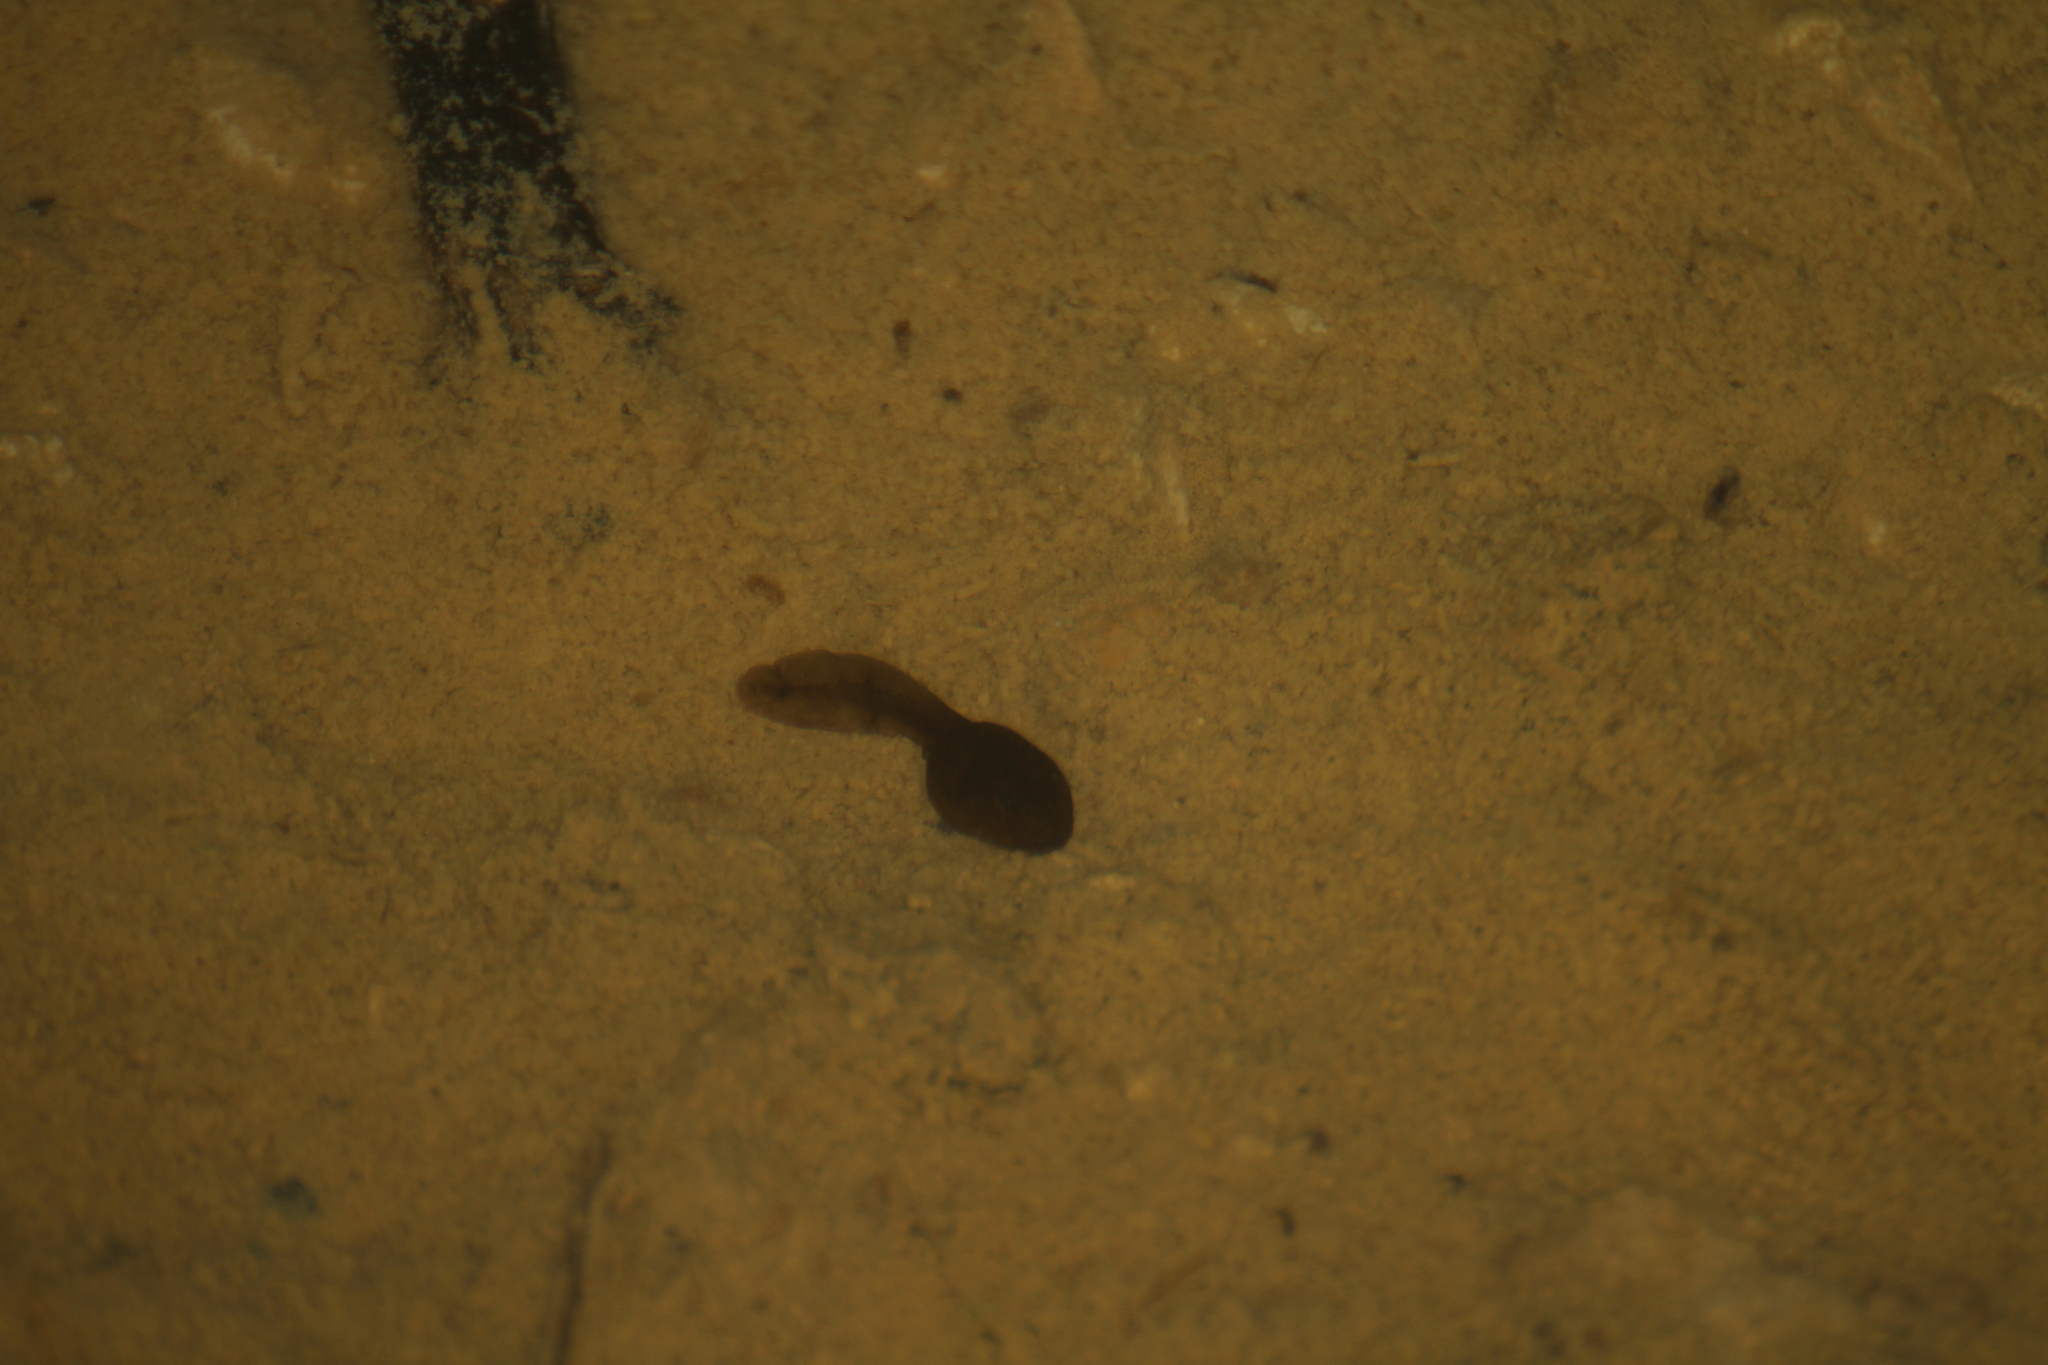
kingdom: Animalia
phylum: Chordata
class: Amphibia
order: Anura
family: Bufonidae
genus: Bufo
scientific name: Bufo spinosus
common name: Western common toad
